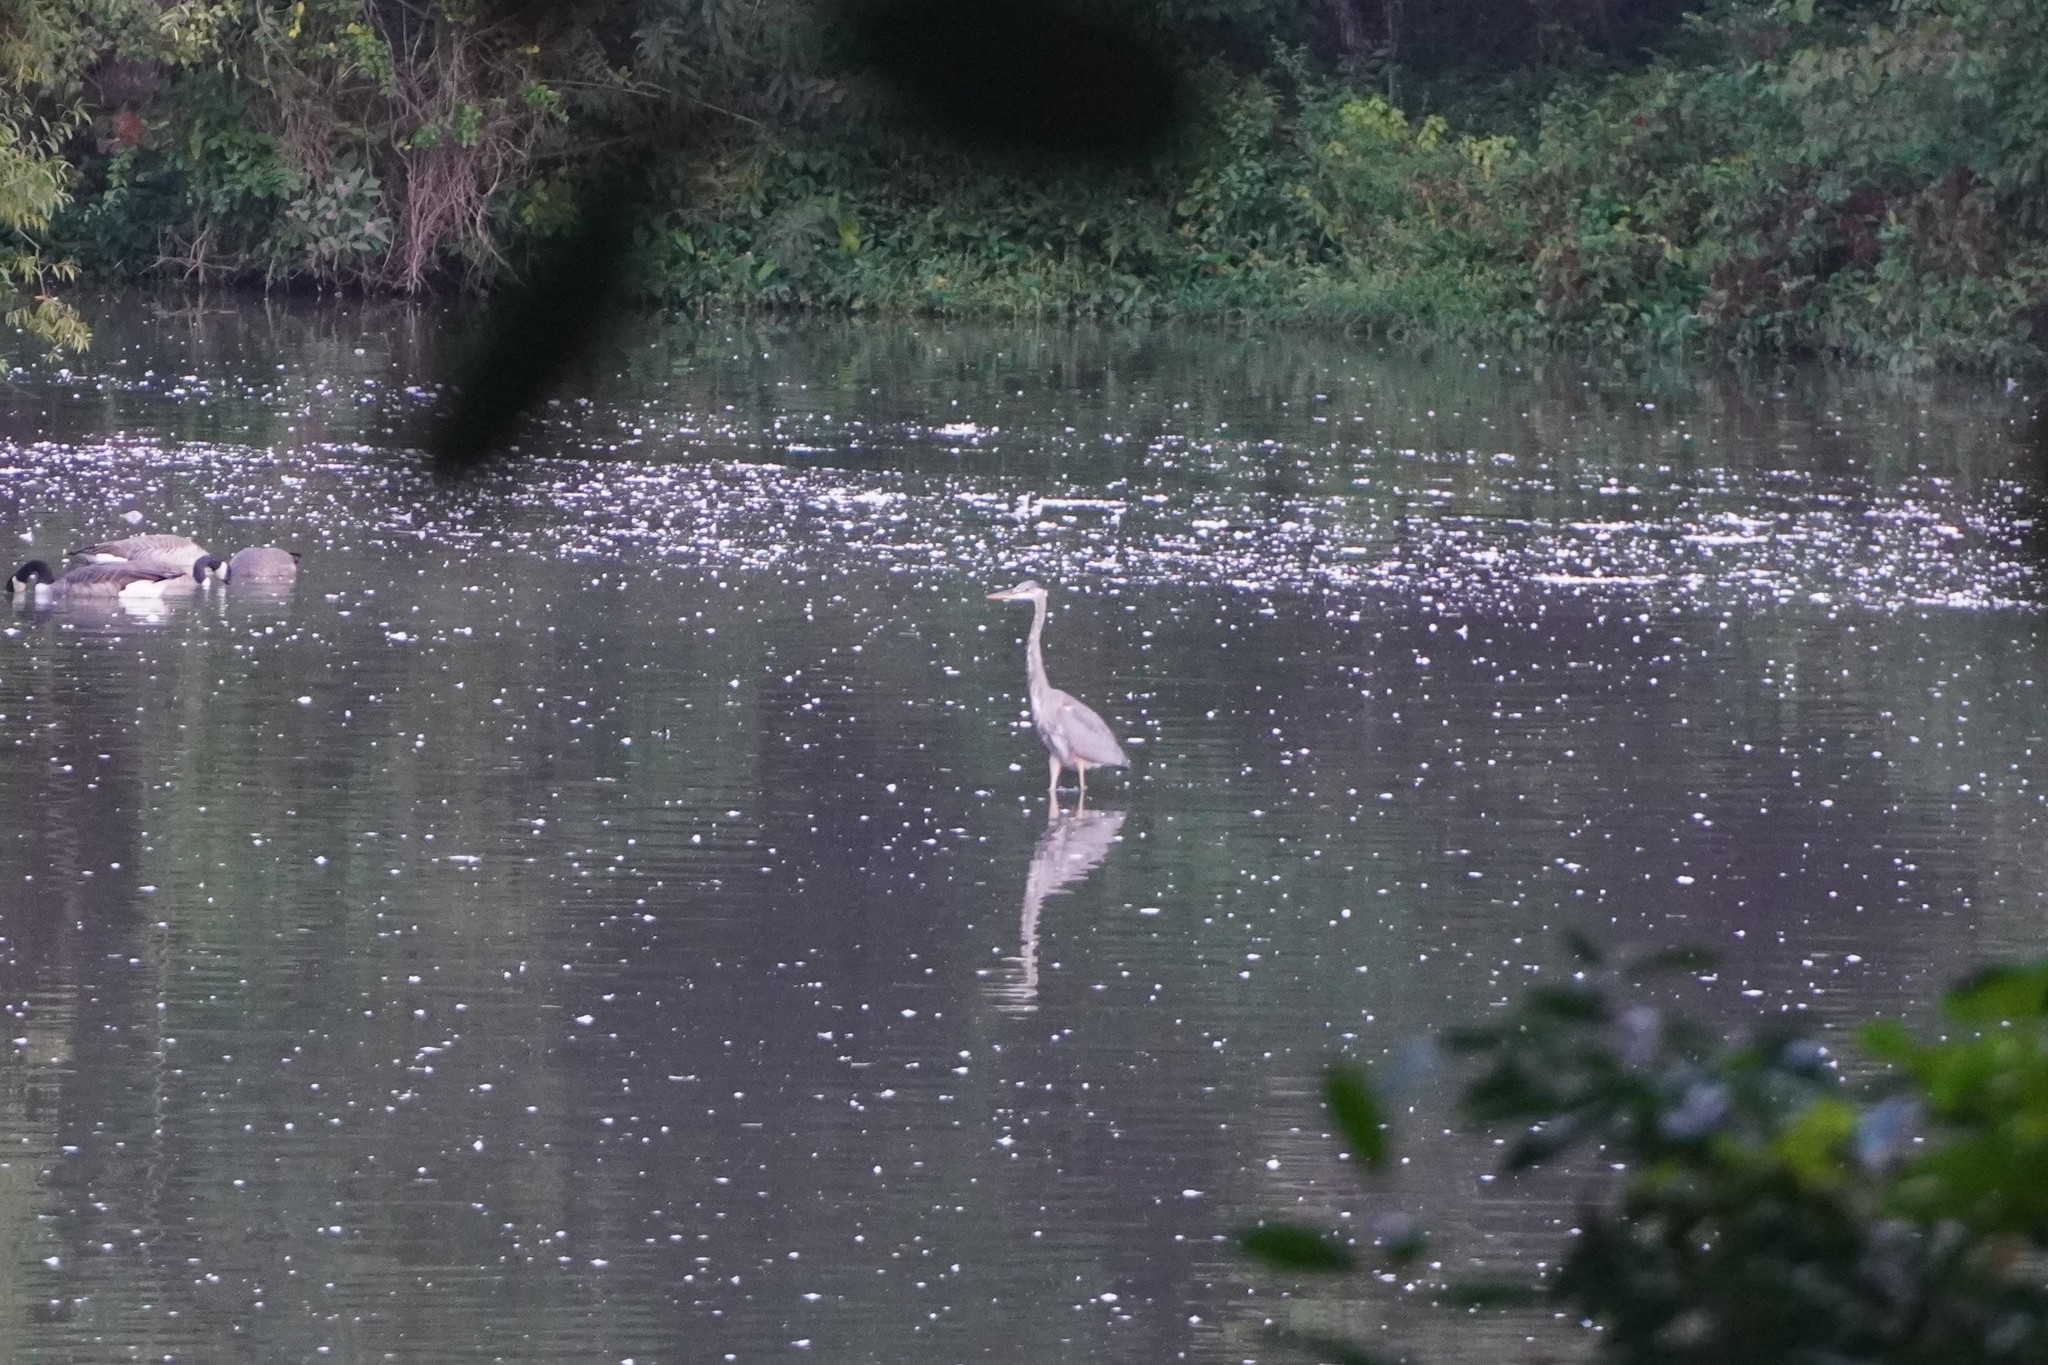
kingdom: Animalia
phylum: Chordata
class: Aves
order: Pelecaniformes
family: Ardeidae
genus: Ardea
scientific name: Ardea herodias
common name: Great blue heron
